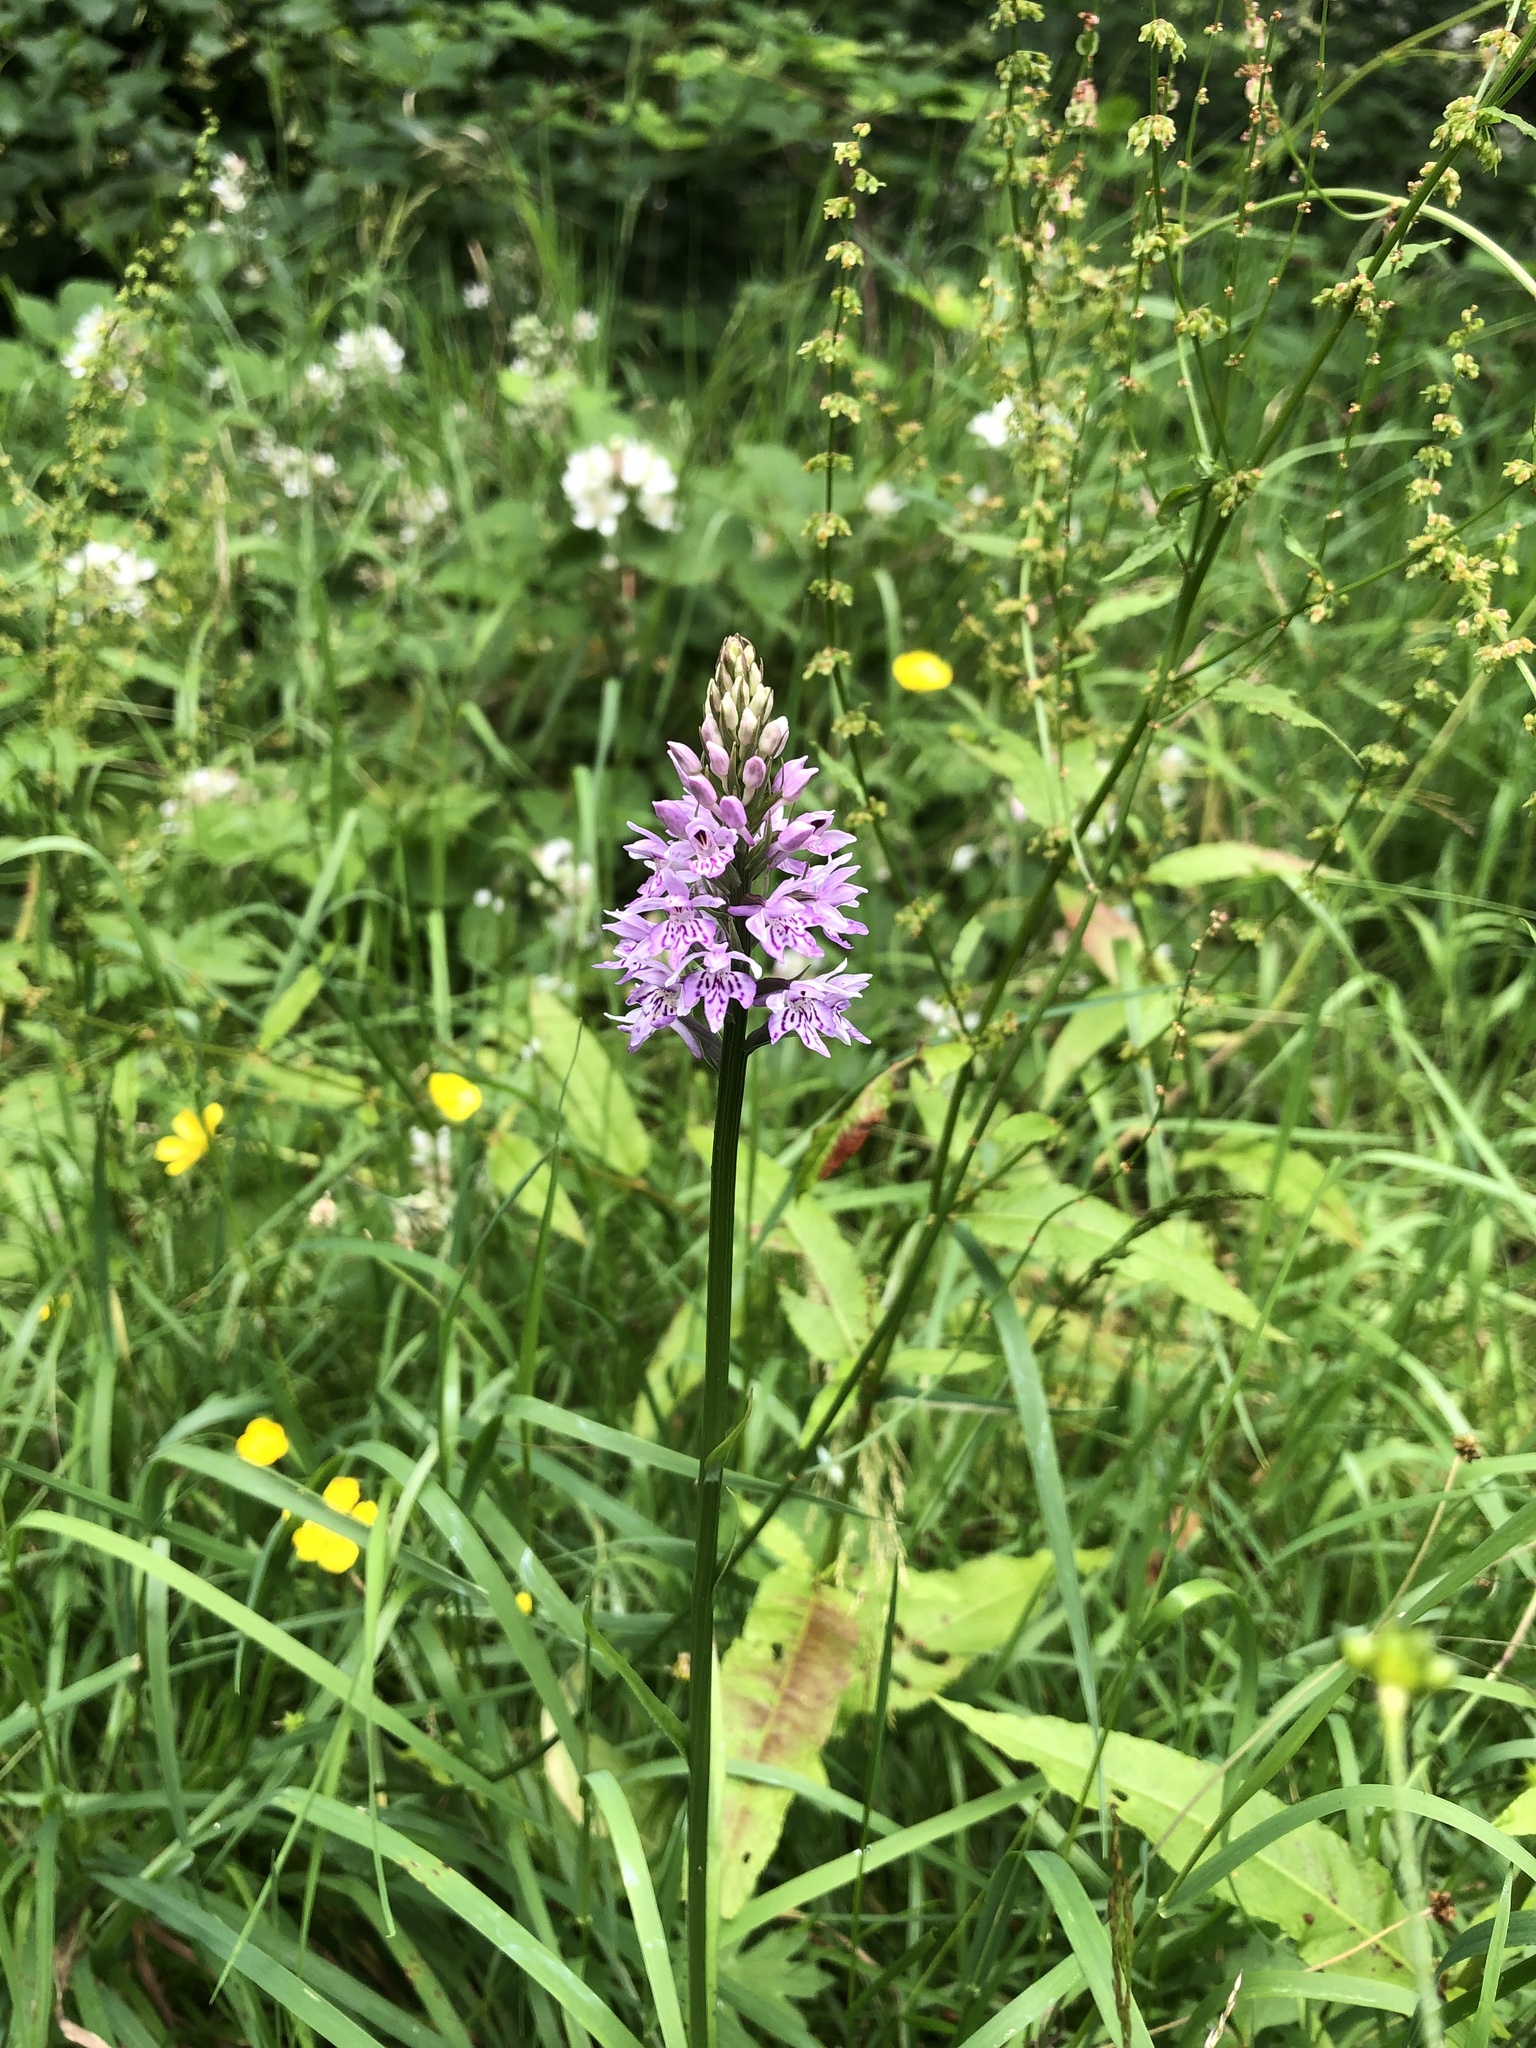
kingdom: Plantae
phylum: Tracheophyta
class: Liliopsida
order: Asparagales
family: Orchidaceae
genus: Dactylorhiza
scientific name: Dactylorhiza maculata
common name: Heath spotted-orchid
